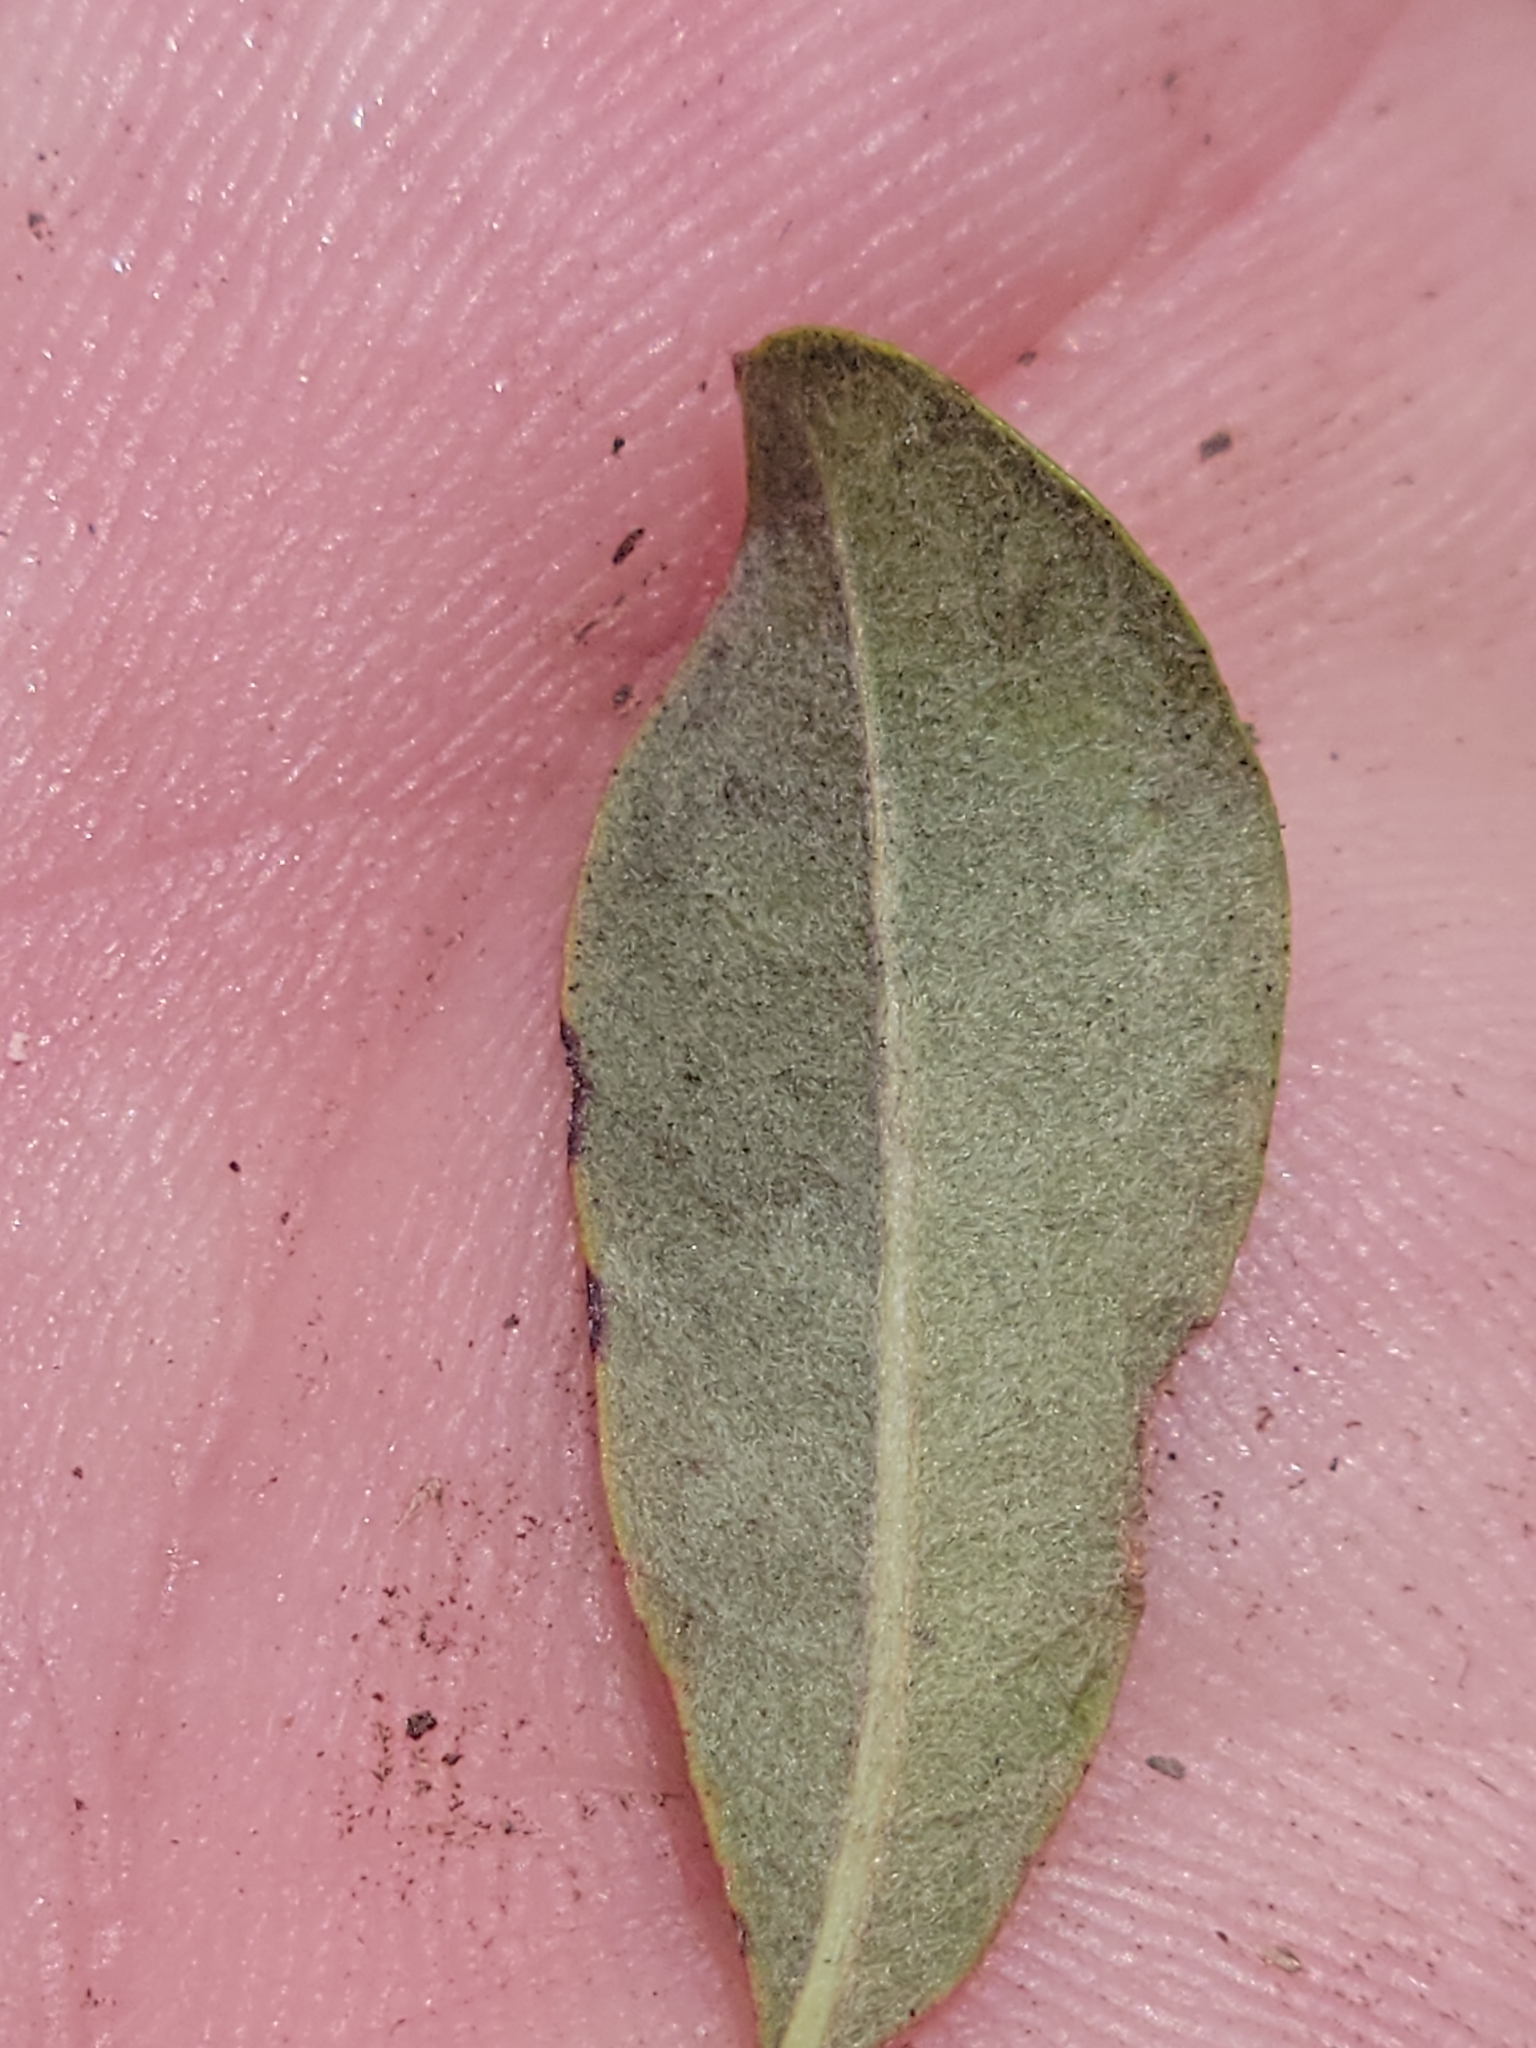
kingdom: Plantae
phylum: Tracheophyta
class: Magnoliopsida
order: Ericales
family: Sapotaceae
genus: Sideroxylon
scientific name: Sideroxylon reclinatum
